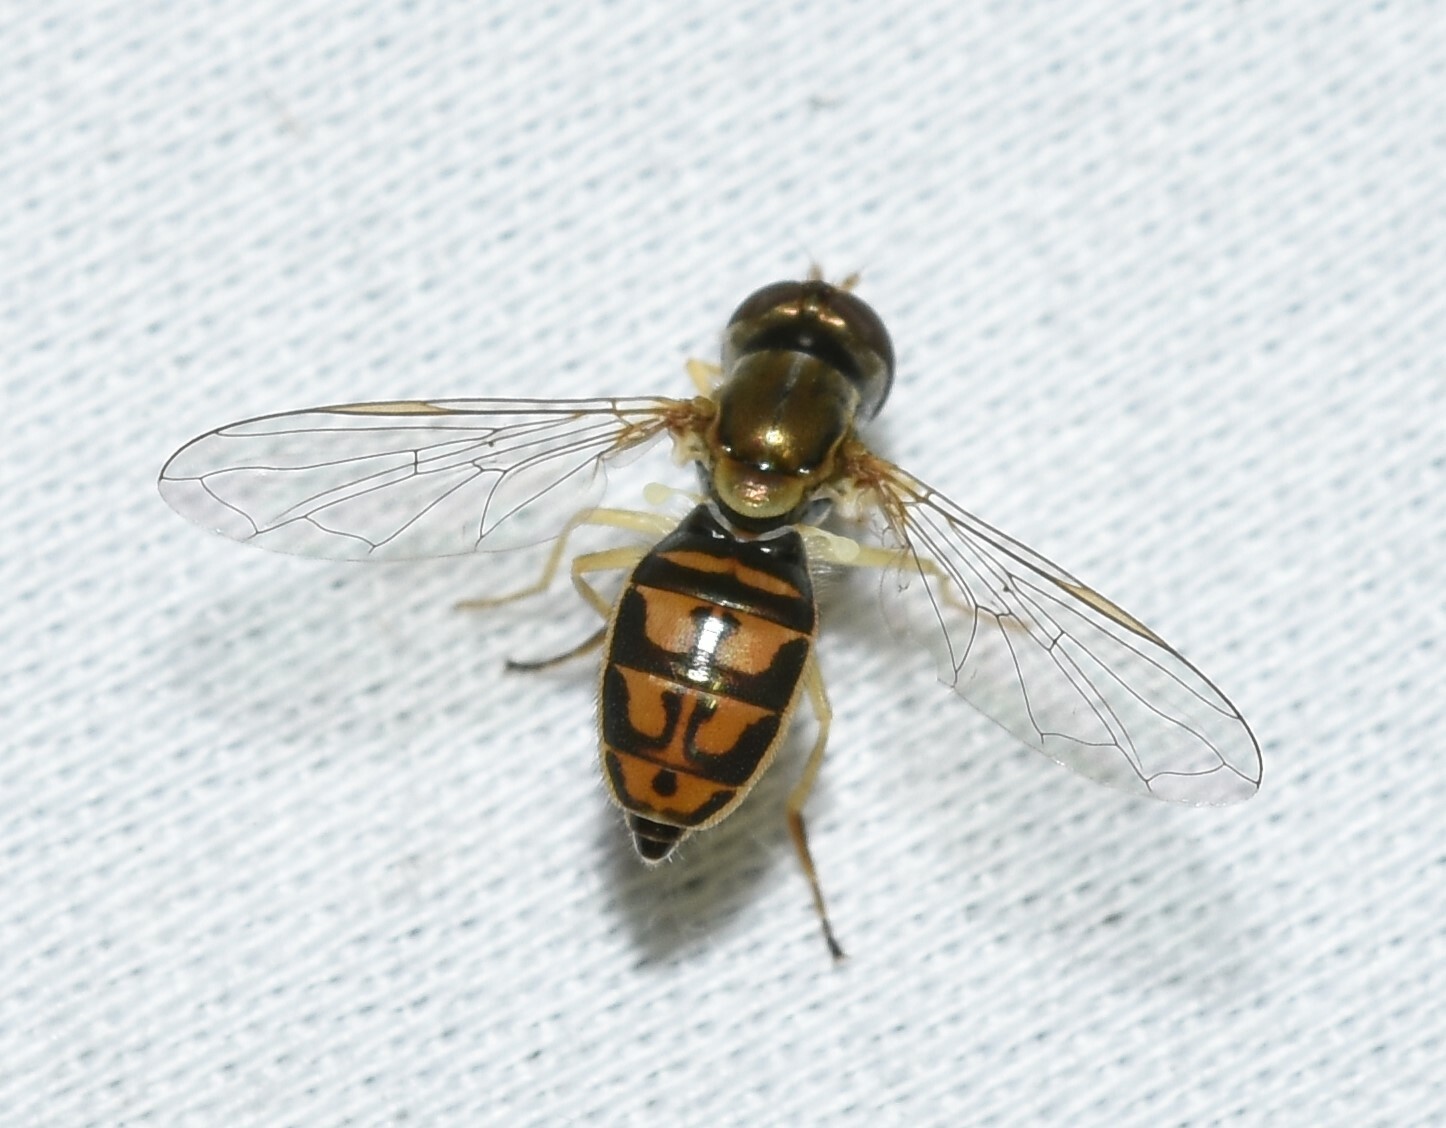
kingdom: Animalia
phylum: Arthropoda
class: Insecta
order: Diptera
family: Syrphidae
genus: Toxomerus
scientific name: Toxomerus marginatus
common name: Syrphid fly
